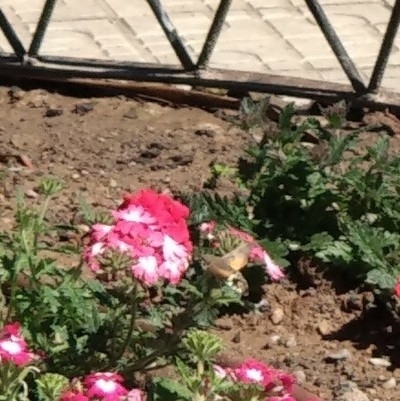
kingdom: Animalia
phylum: Arthropoda
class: Insecta
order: Lepidoptera
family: Sphingidae
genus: Macroglossum
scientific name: Macroglossum stellatarum
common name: Humming-bird hawk-moth
